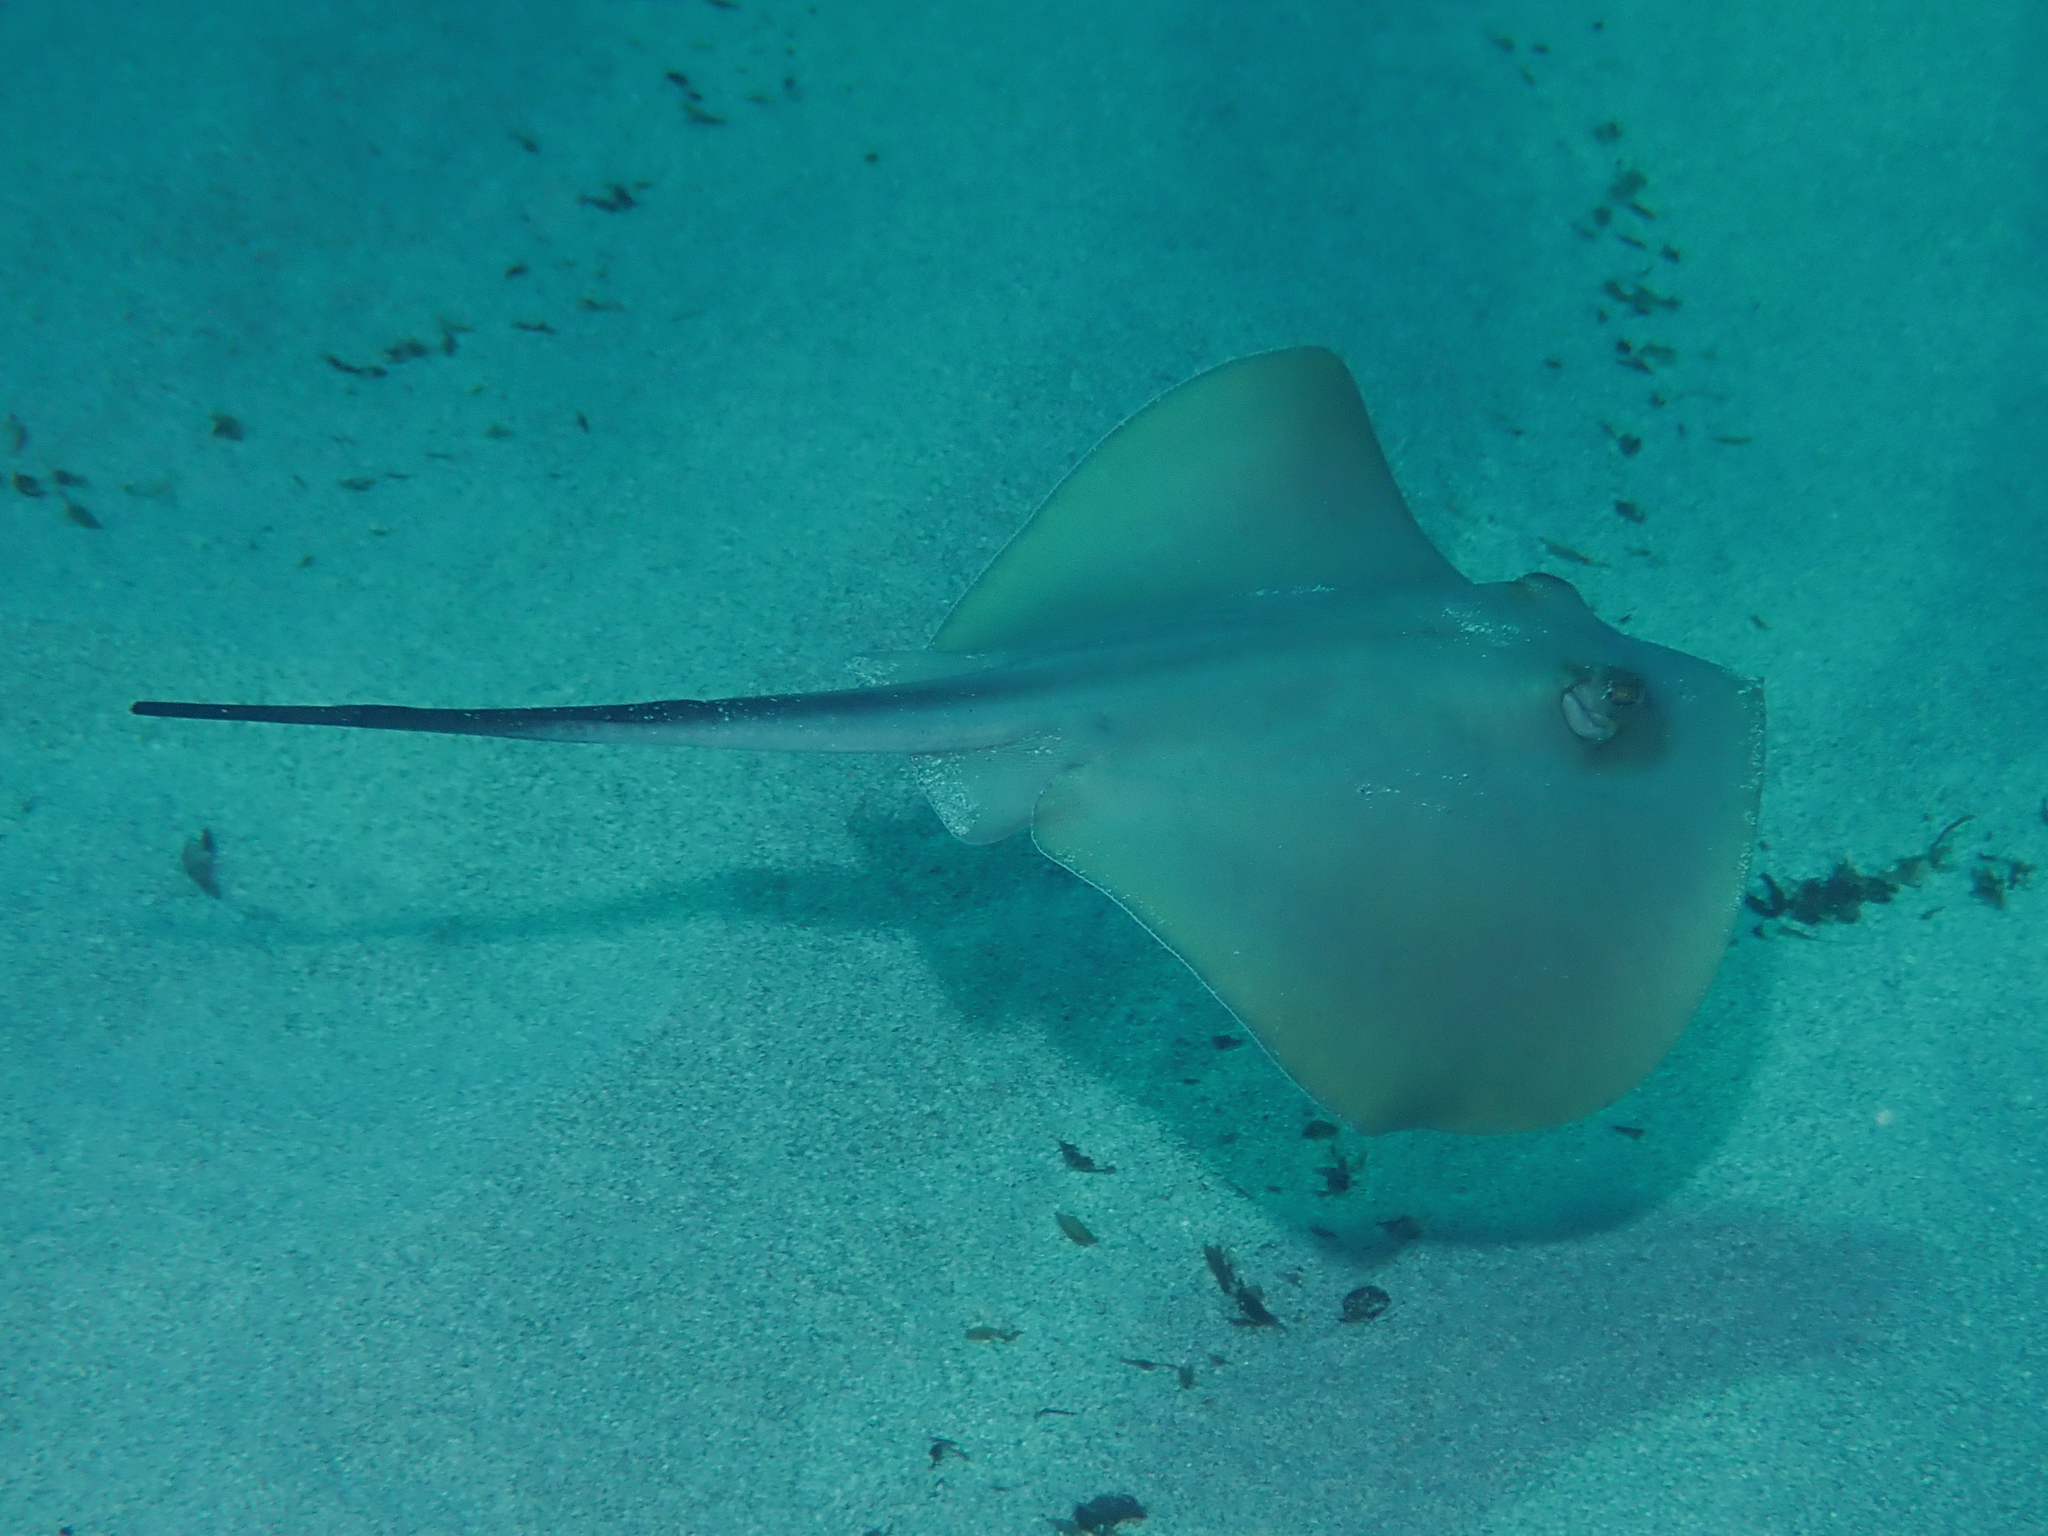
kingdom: Animalia
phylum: Chordata
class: Elasmobranchii
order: Myliobatiformes
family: Dasyatidae
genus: Dasyatis
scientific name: Dasyatis pastinaca
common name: Common stingray
